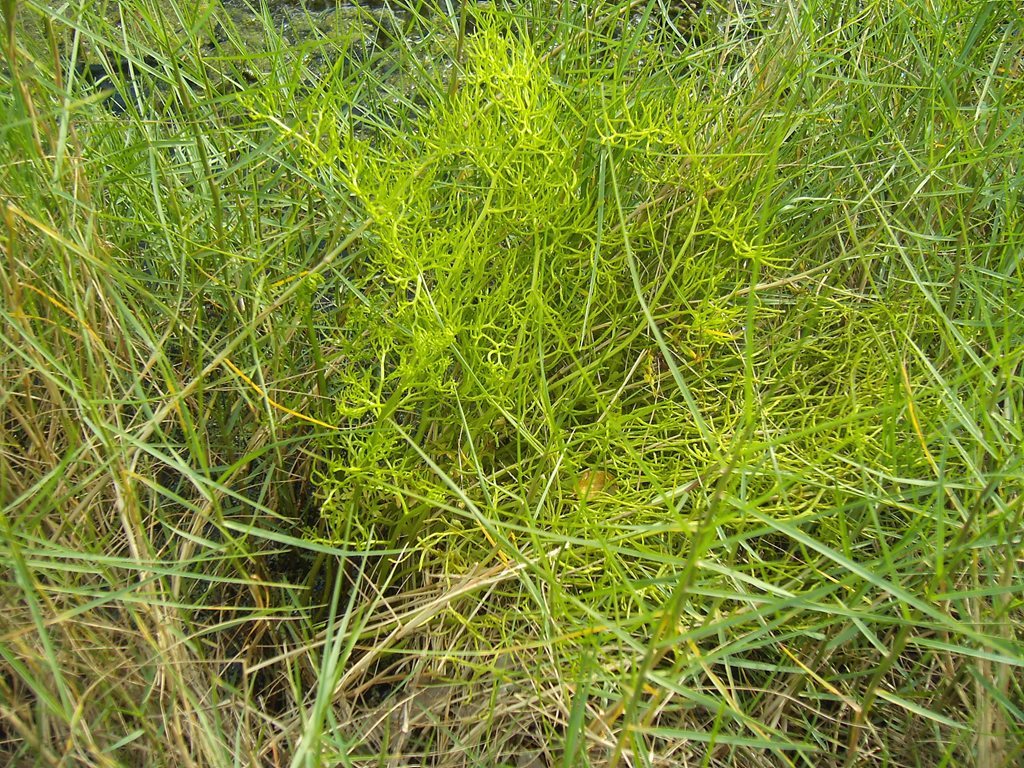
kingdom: Plantae
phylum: Tracheophyta
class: Polypodiopsida
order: Polypodiales
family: Pteridaceae
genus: Ceratopteris
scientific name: Ceratopteris thalictroides
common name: Water fern
